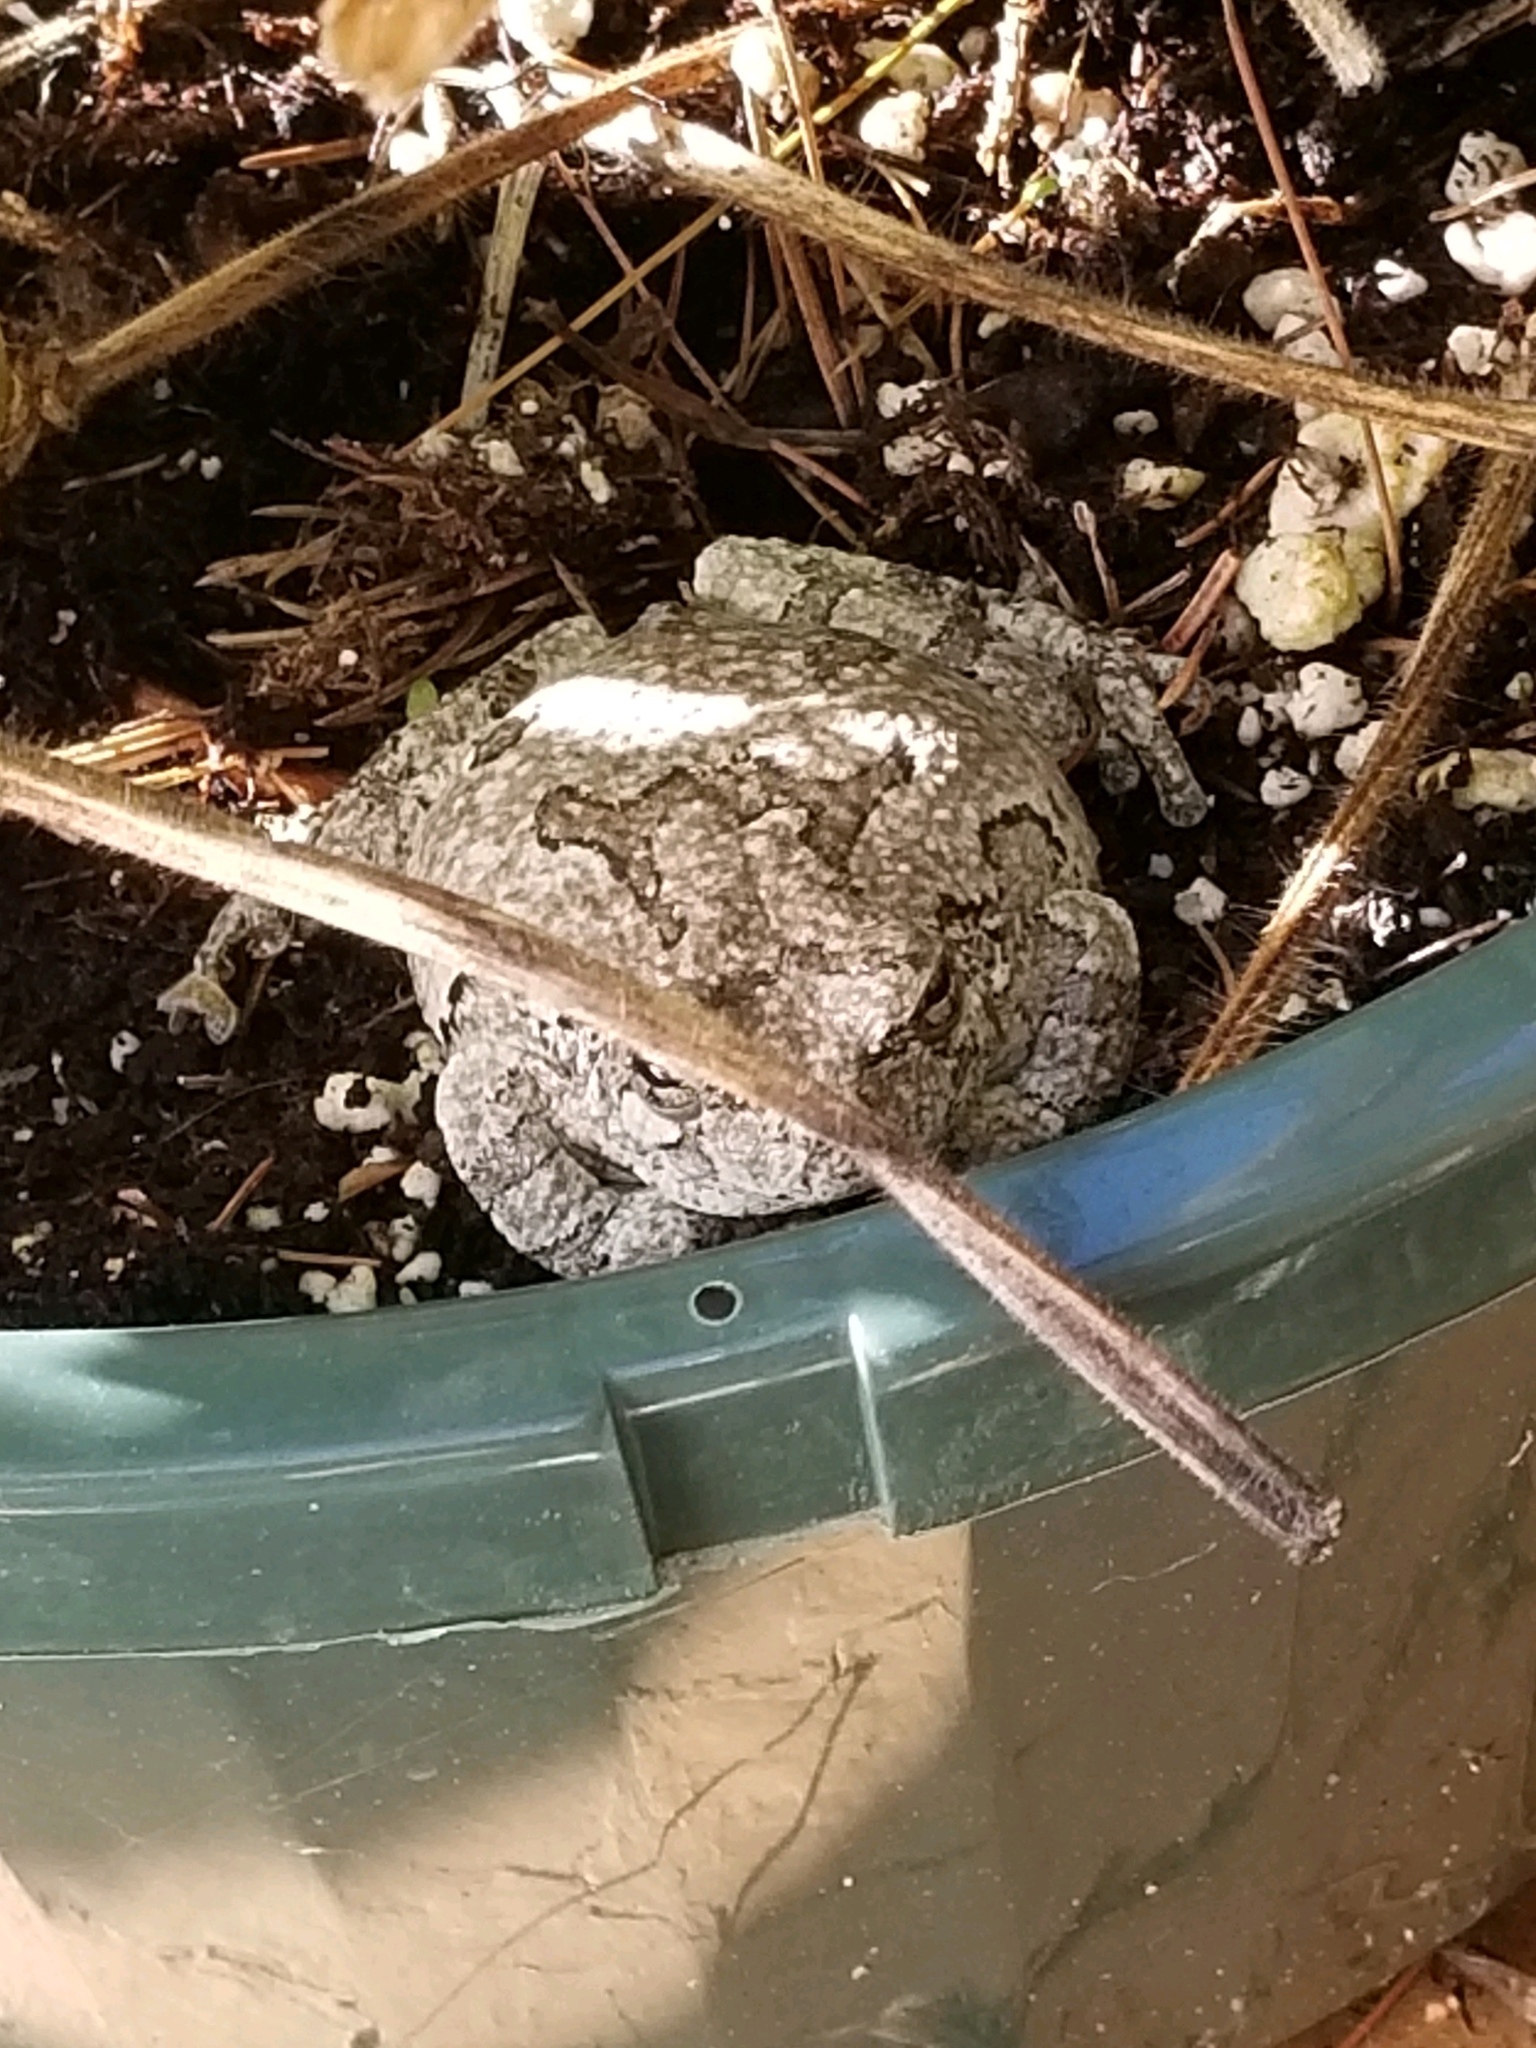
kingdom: Animalia
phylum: Chordata
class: Amphibia
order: Anura
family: Hylidae
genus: Dryophytes
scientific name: Dryophytes versicolor
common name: Gray treefrog
